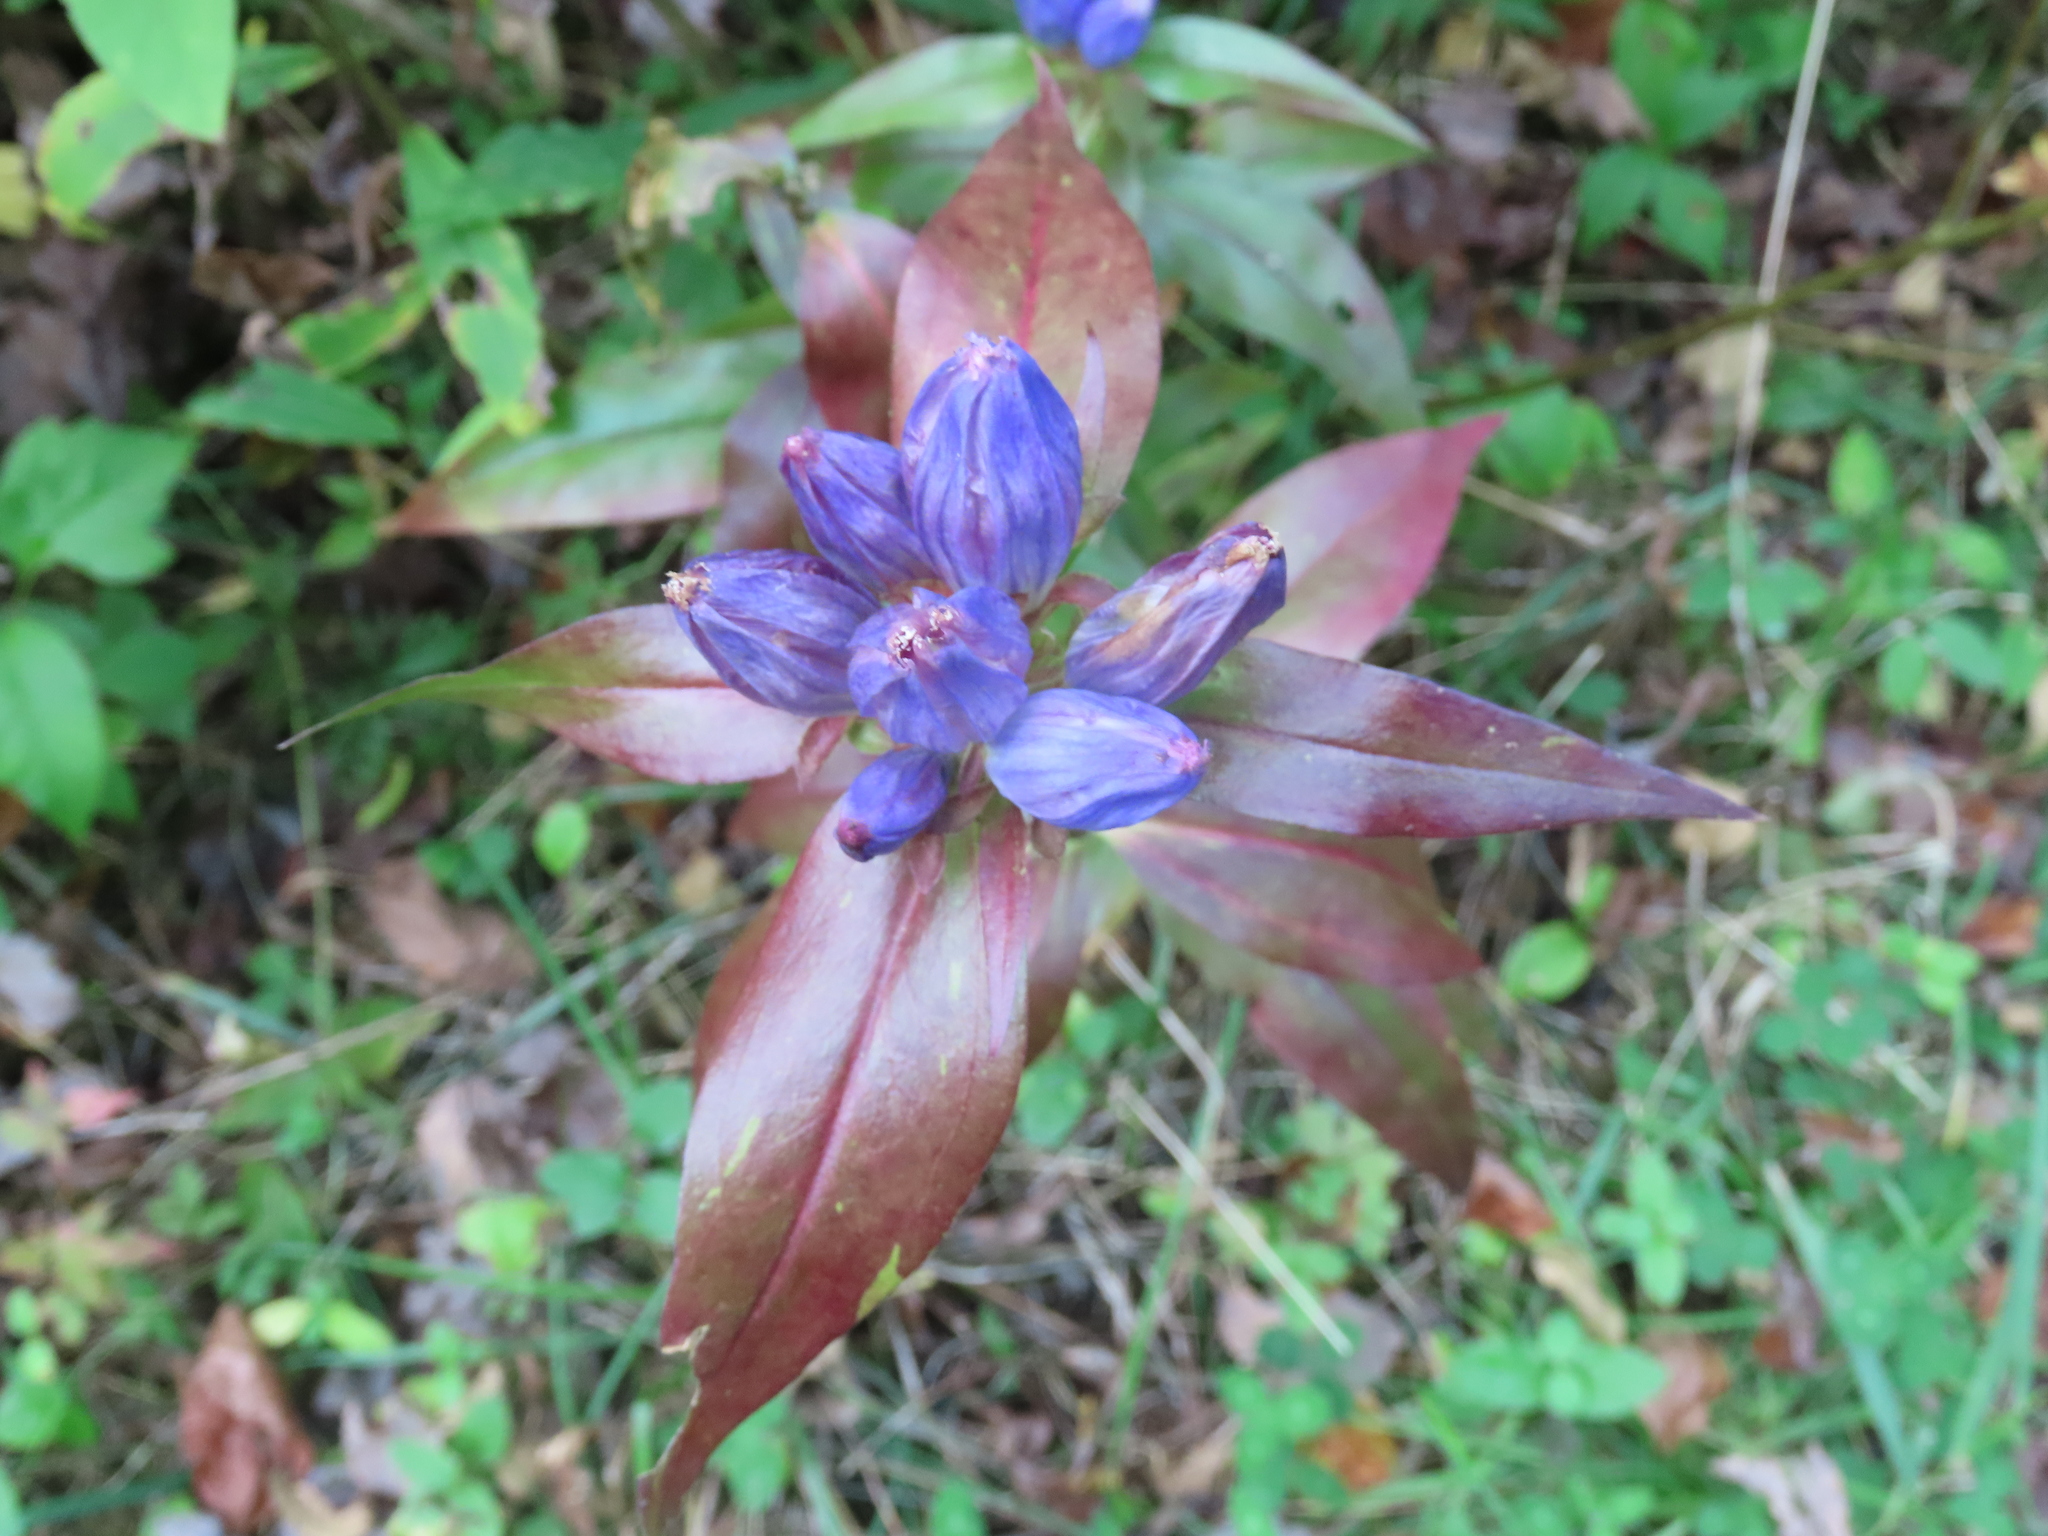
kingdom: Plantae
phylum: Tracheophyta
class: Magnoliopsida
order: Gentianales
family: Gentianaceae
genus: Gentiana
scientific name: Gentiana andrewsii
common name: Bottle gentian
